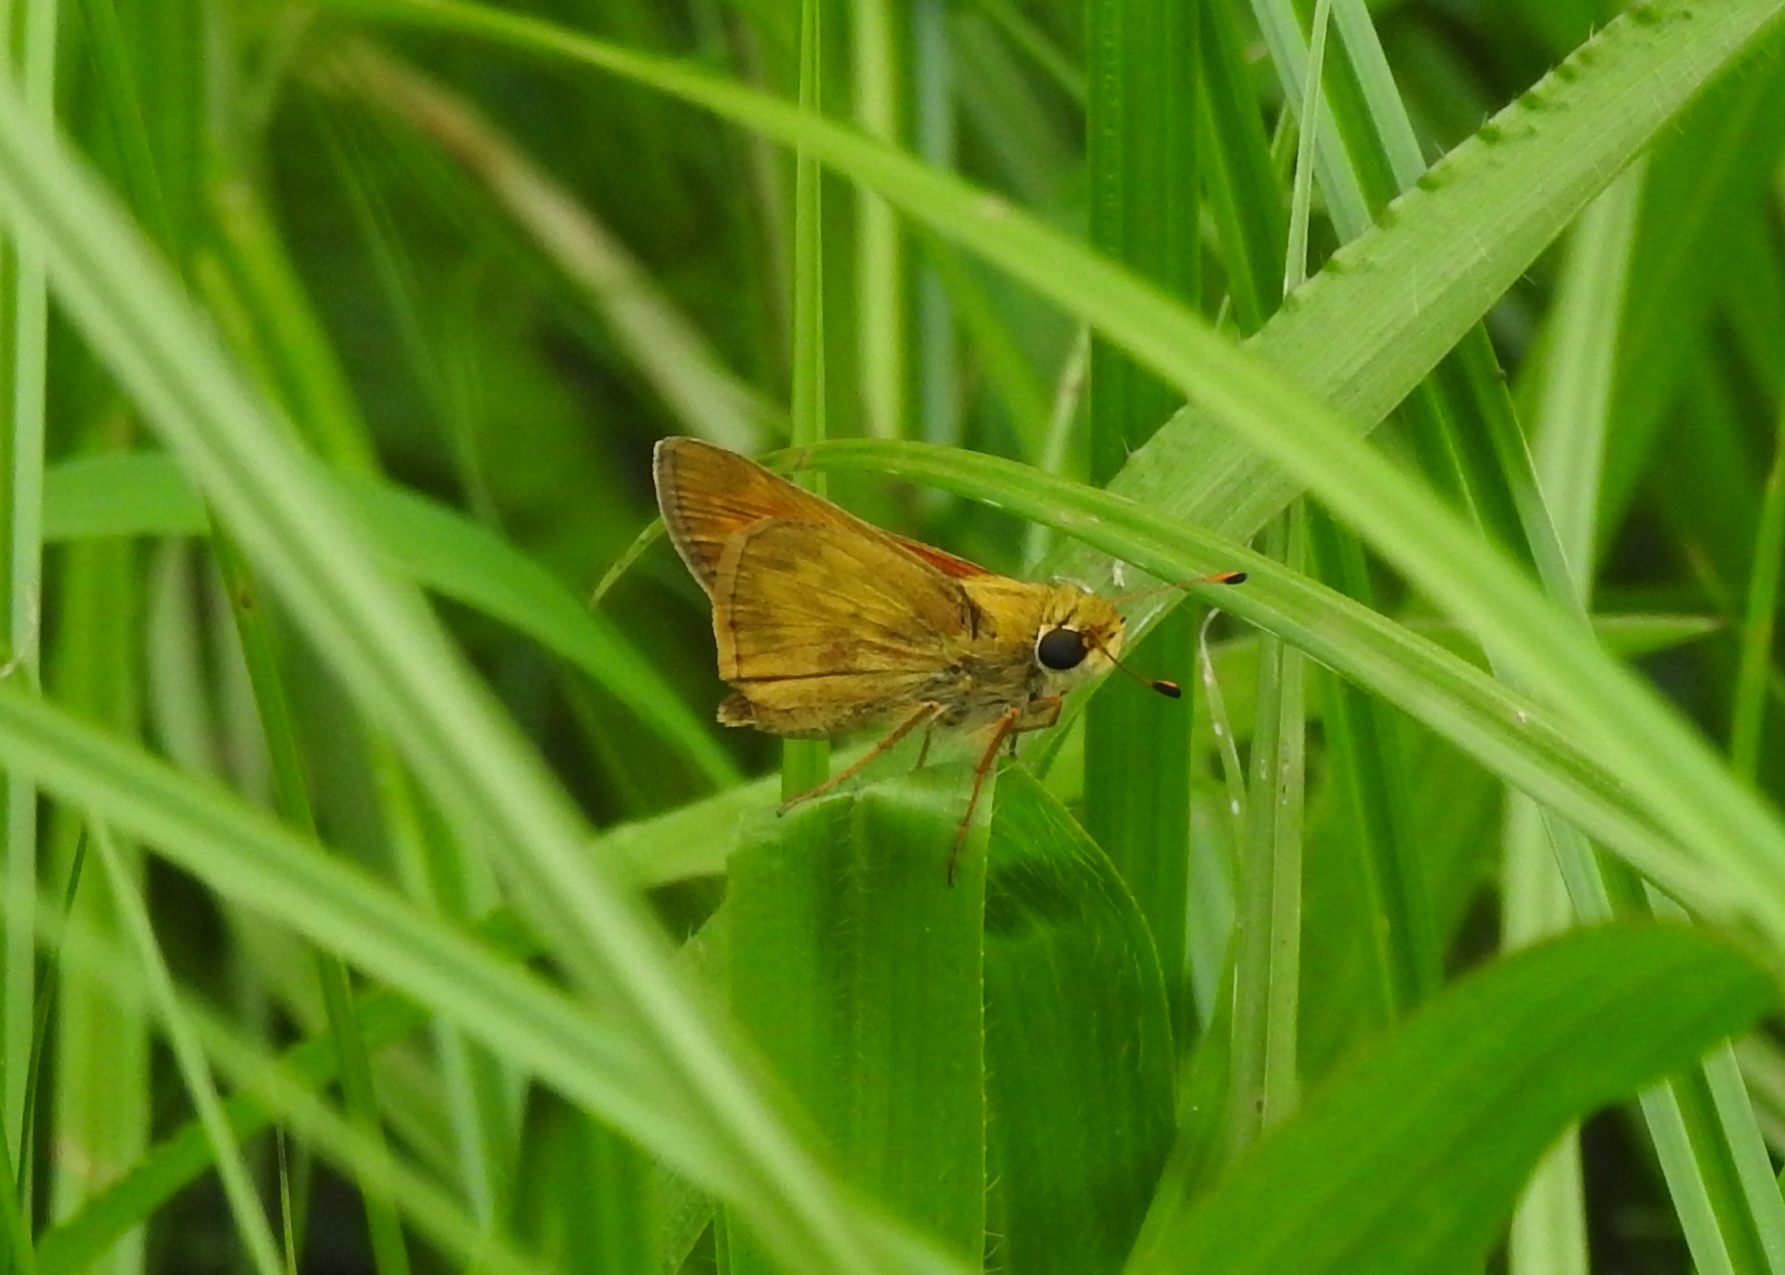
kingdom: Animalia
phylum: Arthropoda
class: Insecta
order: Lepidoptera
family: Hesperiidae
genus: Atalopedes
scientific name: Atalopedes
